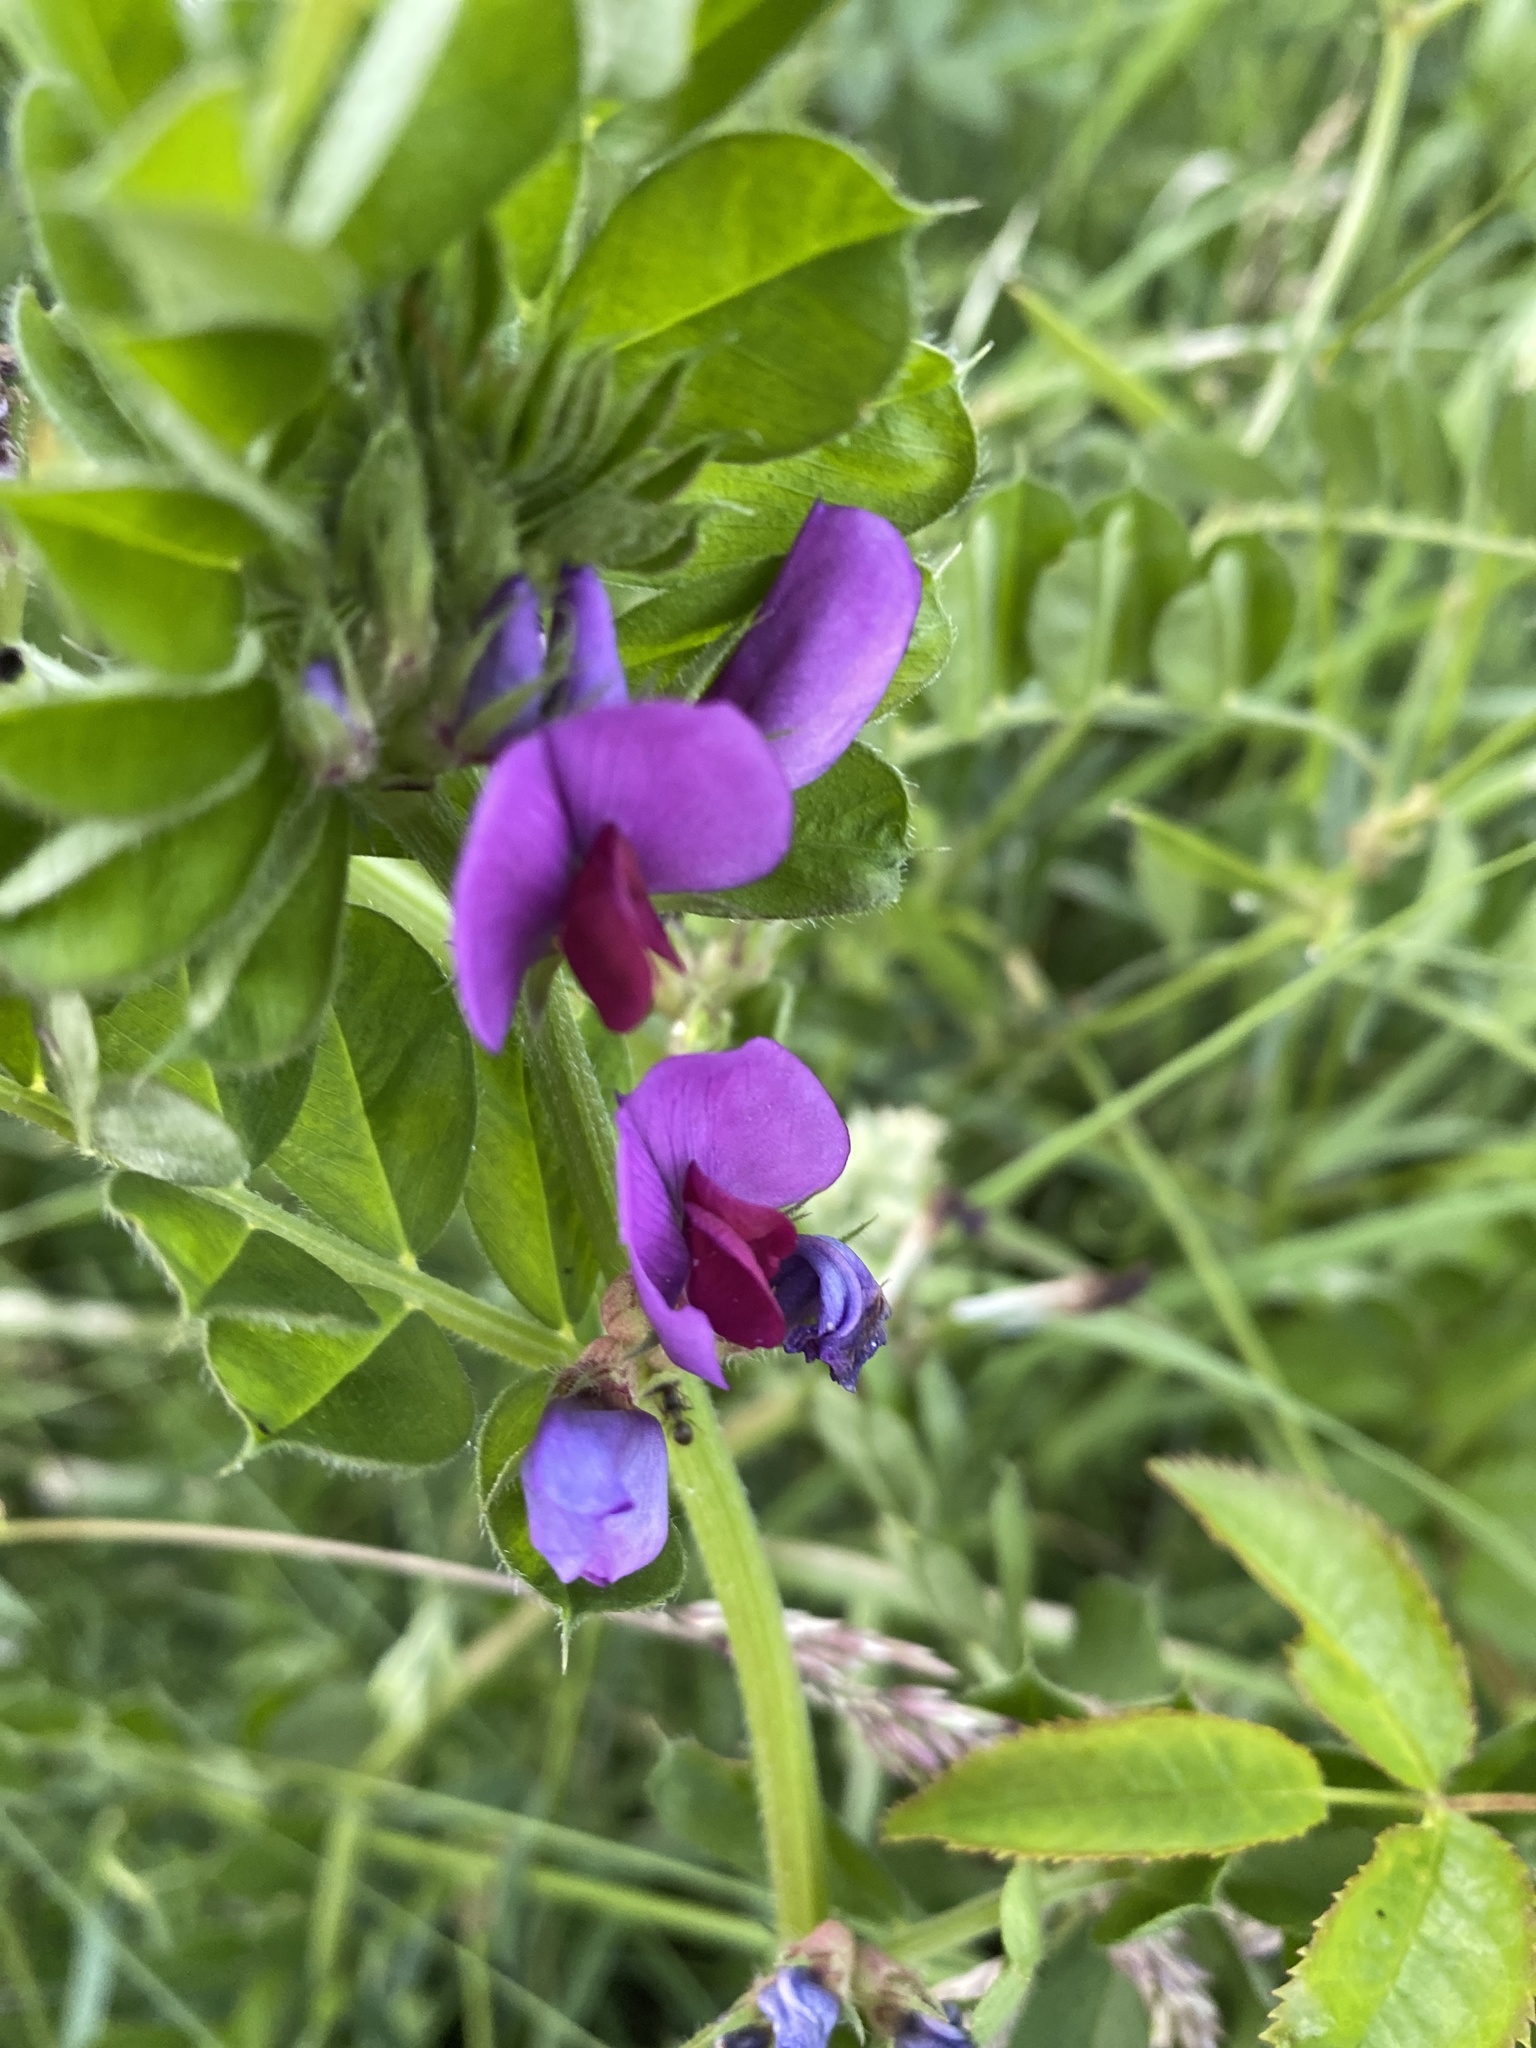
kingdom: Plantae
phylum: Tracheophyta
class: Magnoliopsida
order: Fabales
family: Fabaceae
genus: Vicia
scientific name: Vicia sativa
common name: Garden vetch
